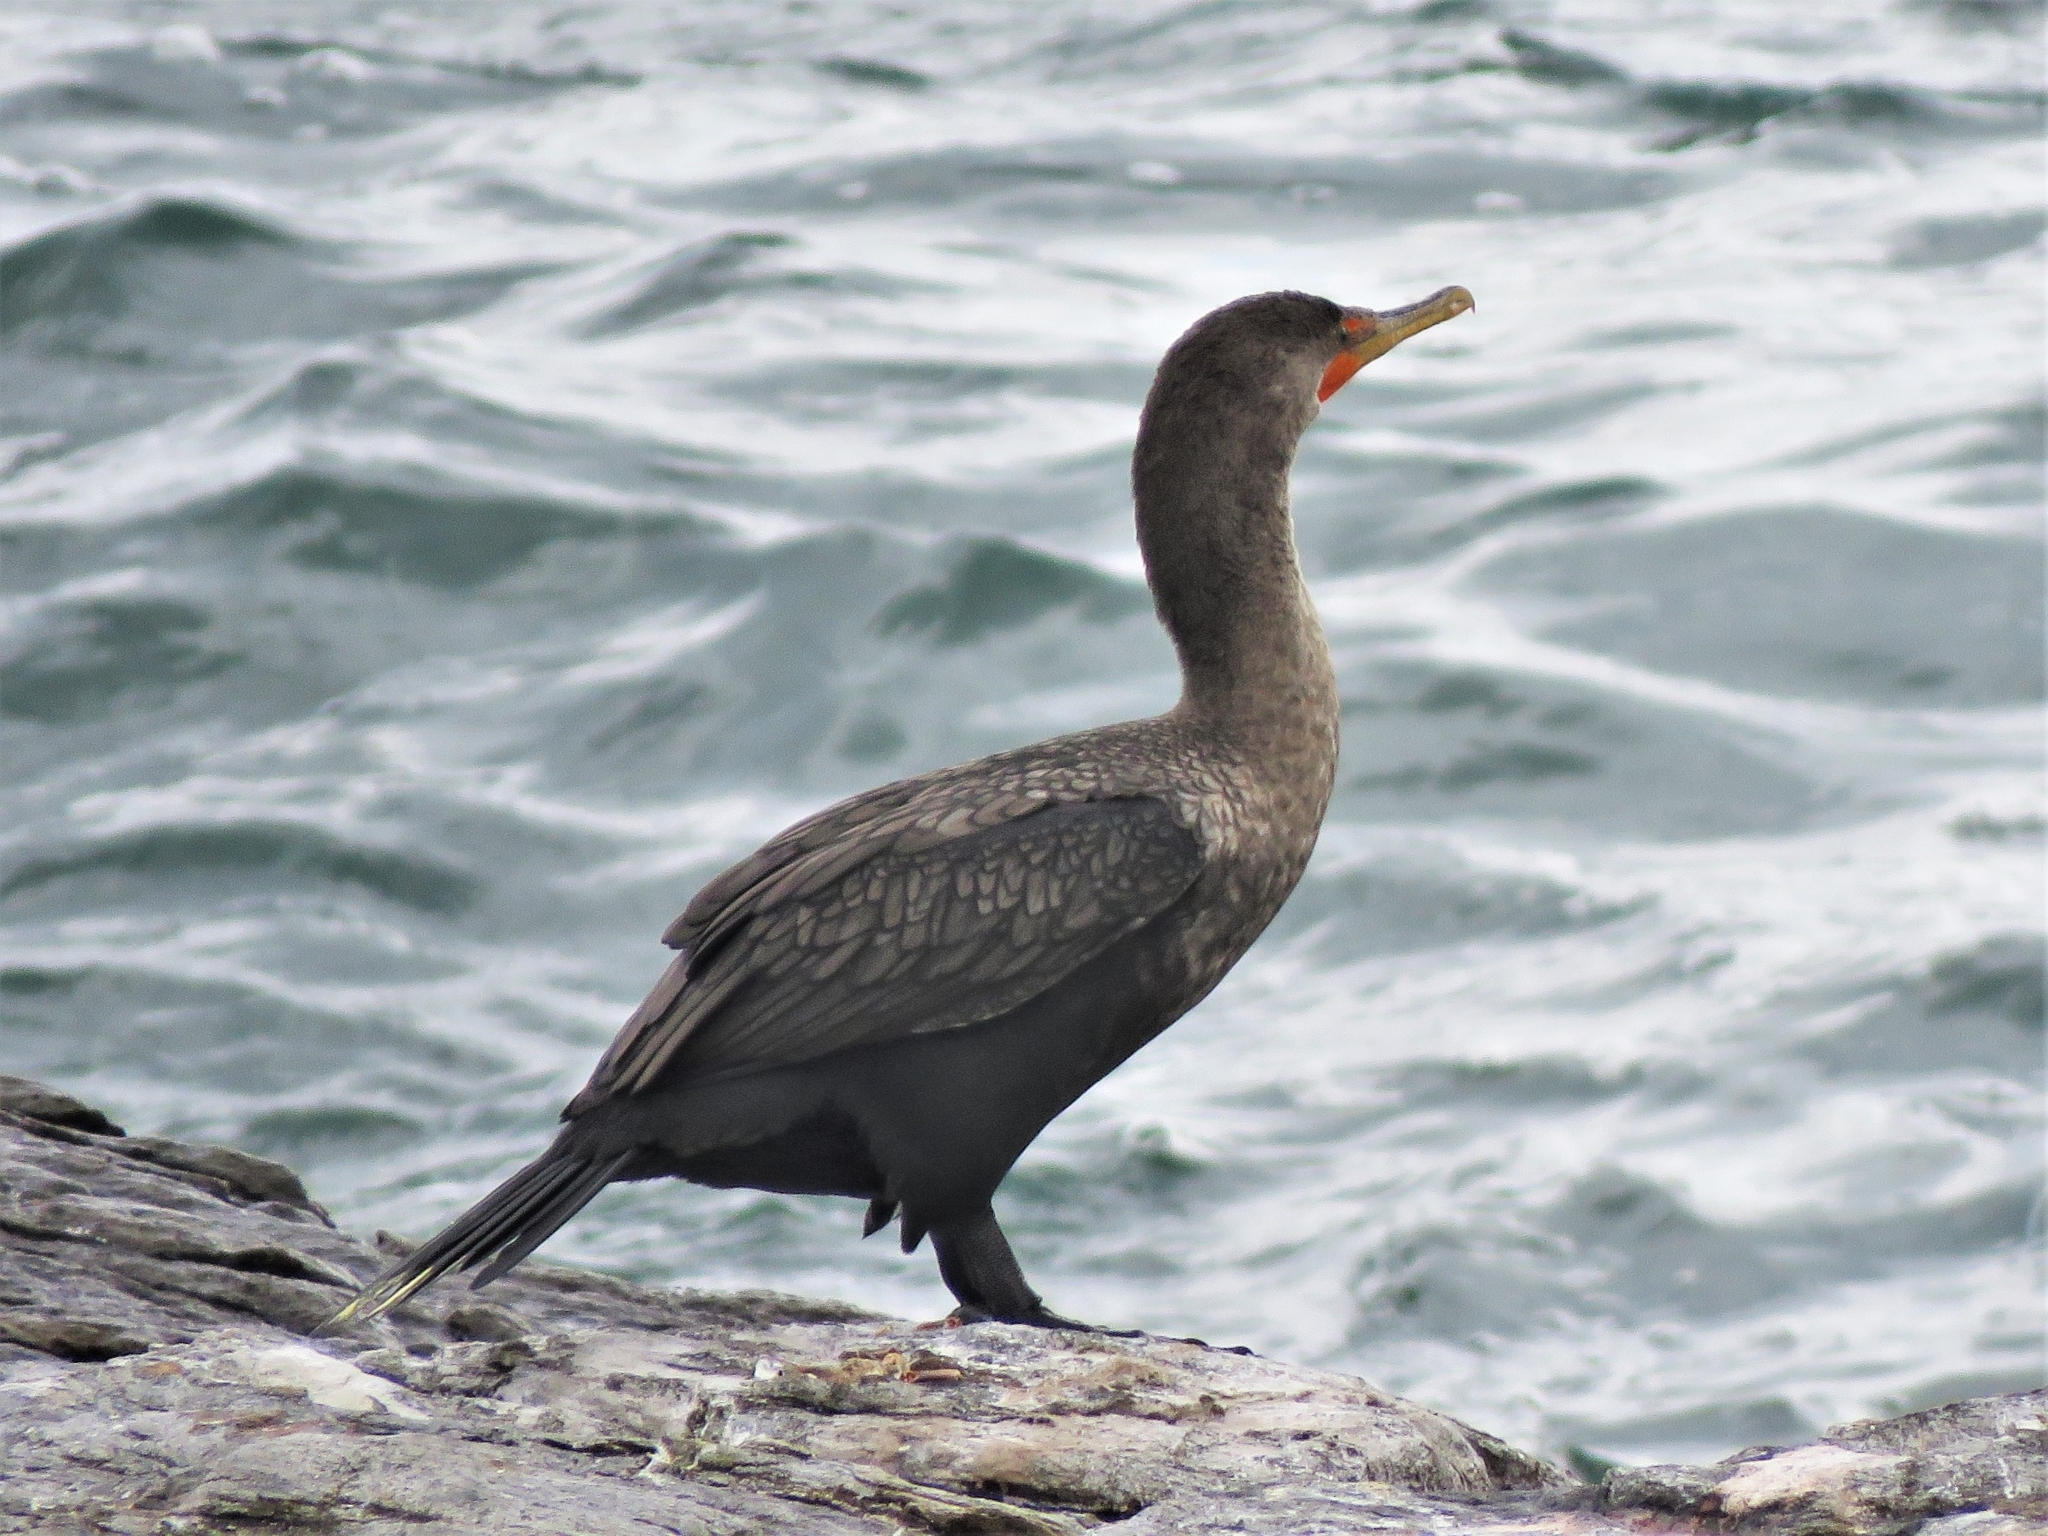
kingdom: Animalia
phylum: Chordata
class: Aves
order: Suliformes
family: Phalacrocoracidae
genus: Phalacrocorax
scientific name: Phalacrocorax auritus
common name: Double-crested cormorant
